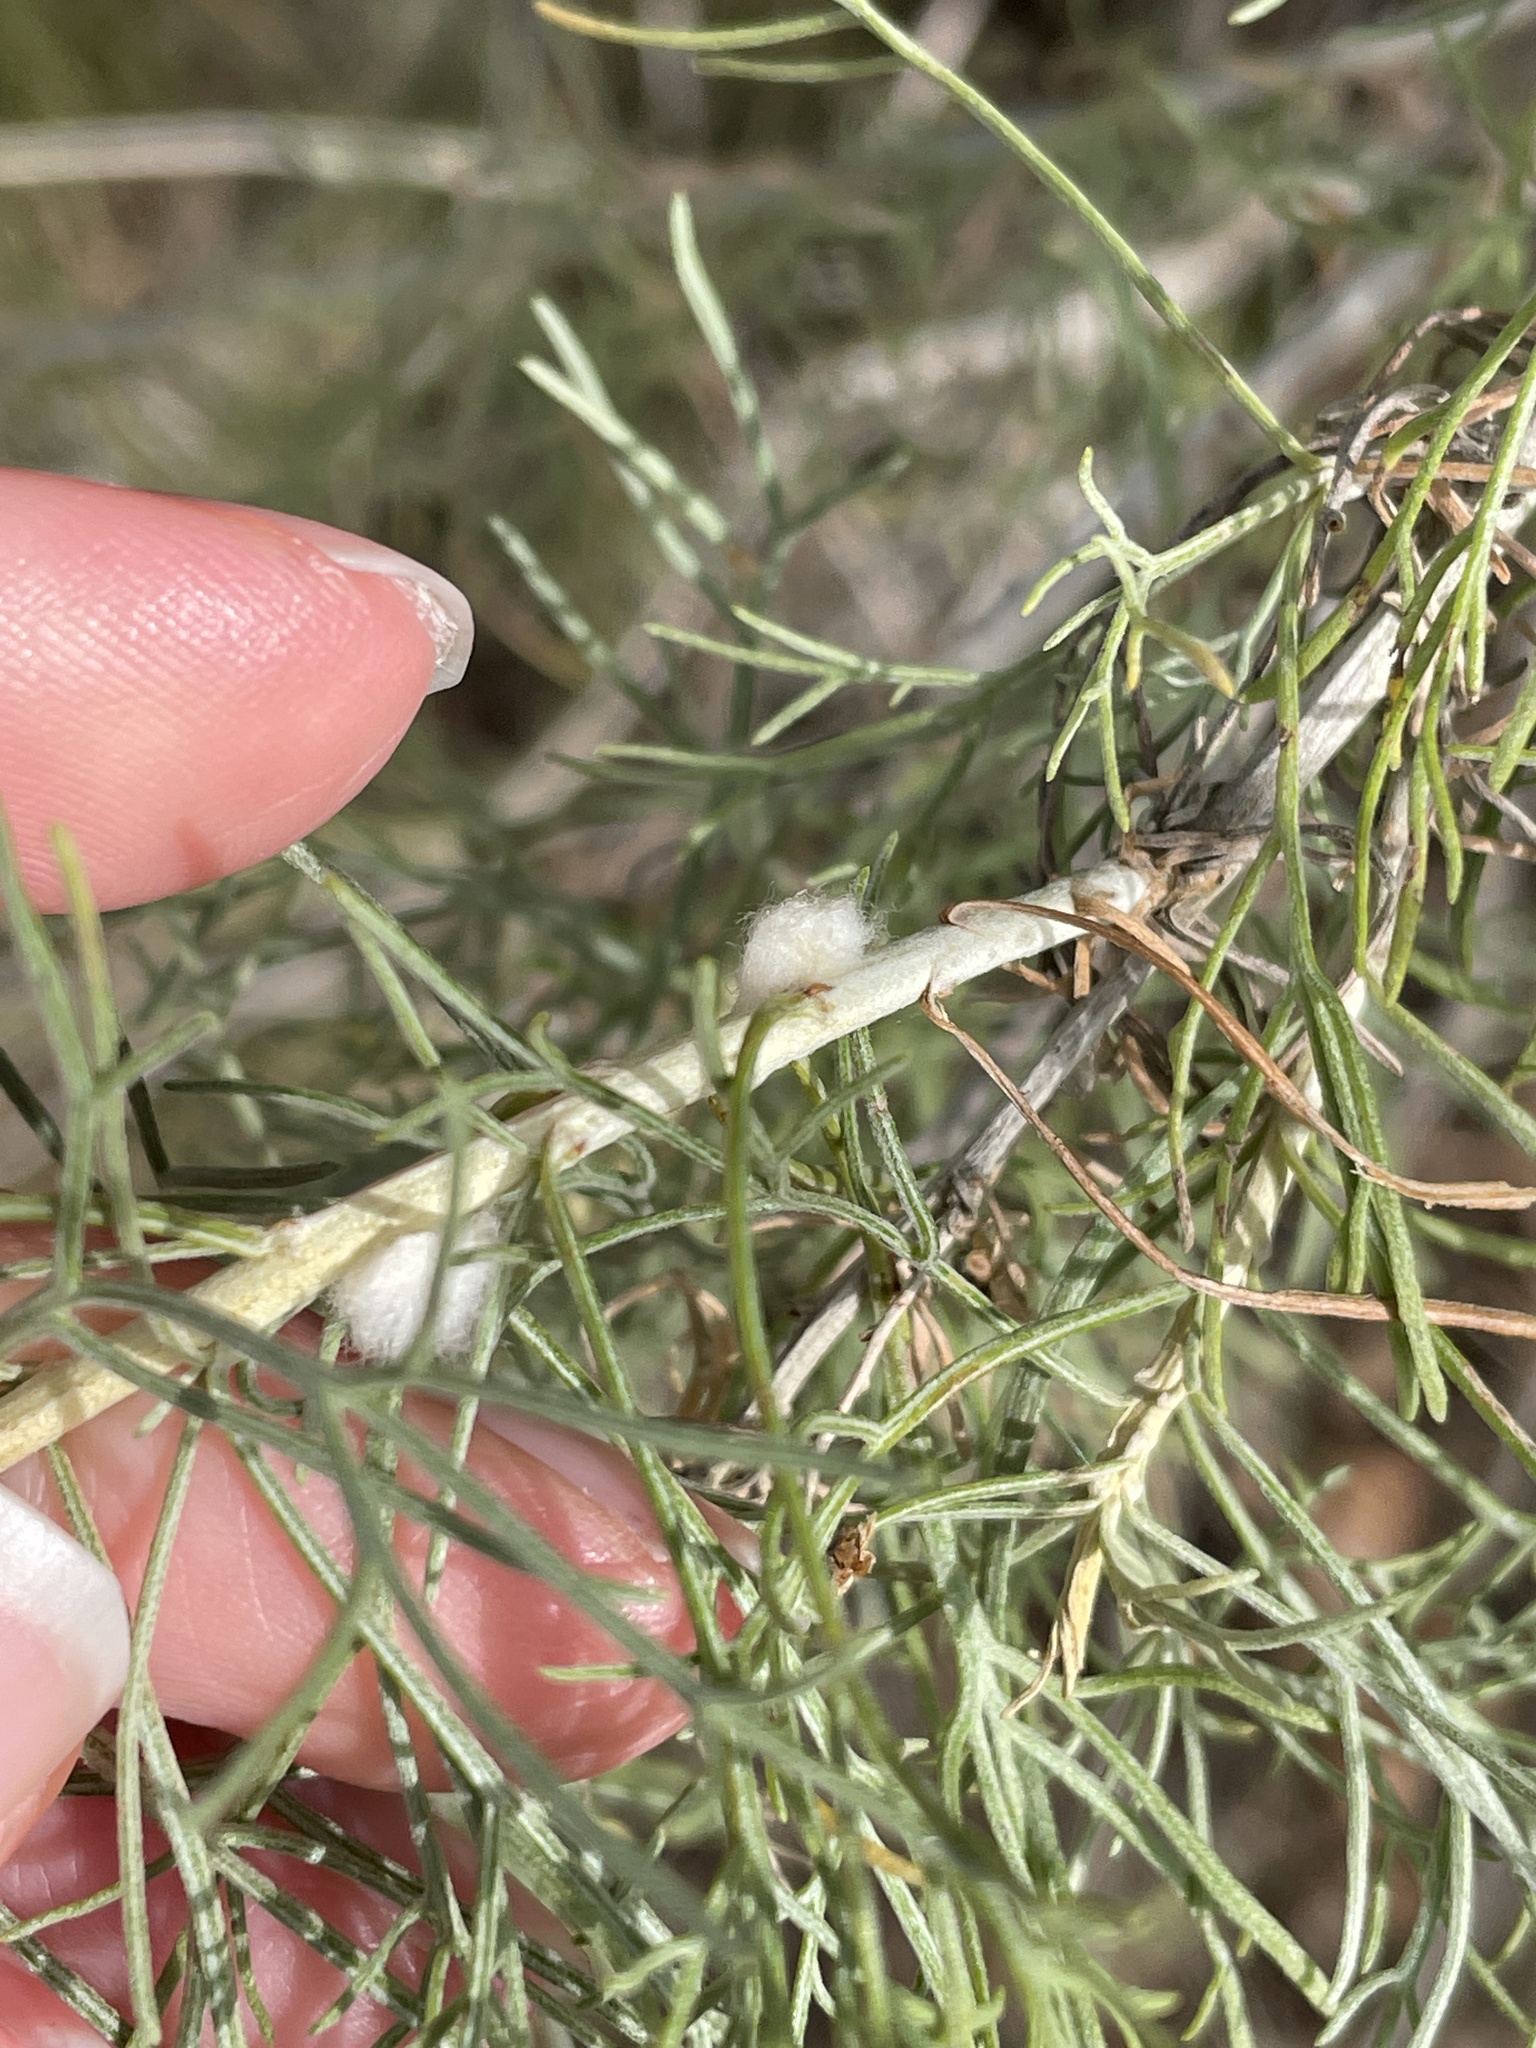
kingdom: Animalia
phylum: Arthropoda
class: Insecta
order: Diptera
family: Cecidomyiidae
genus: Rhopalomyia
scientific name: Rhopalomyia floccosa
